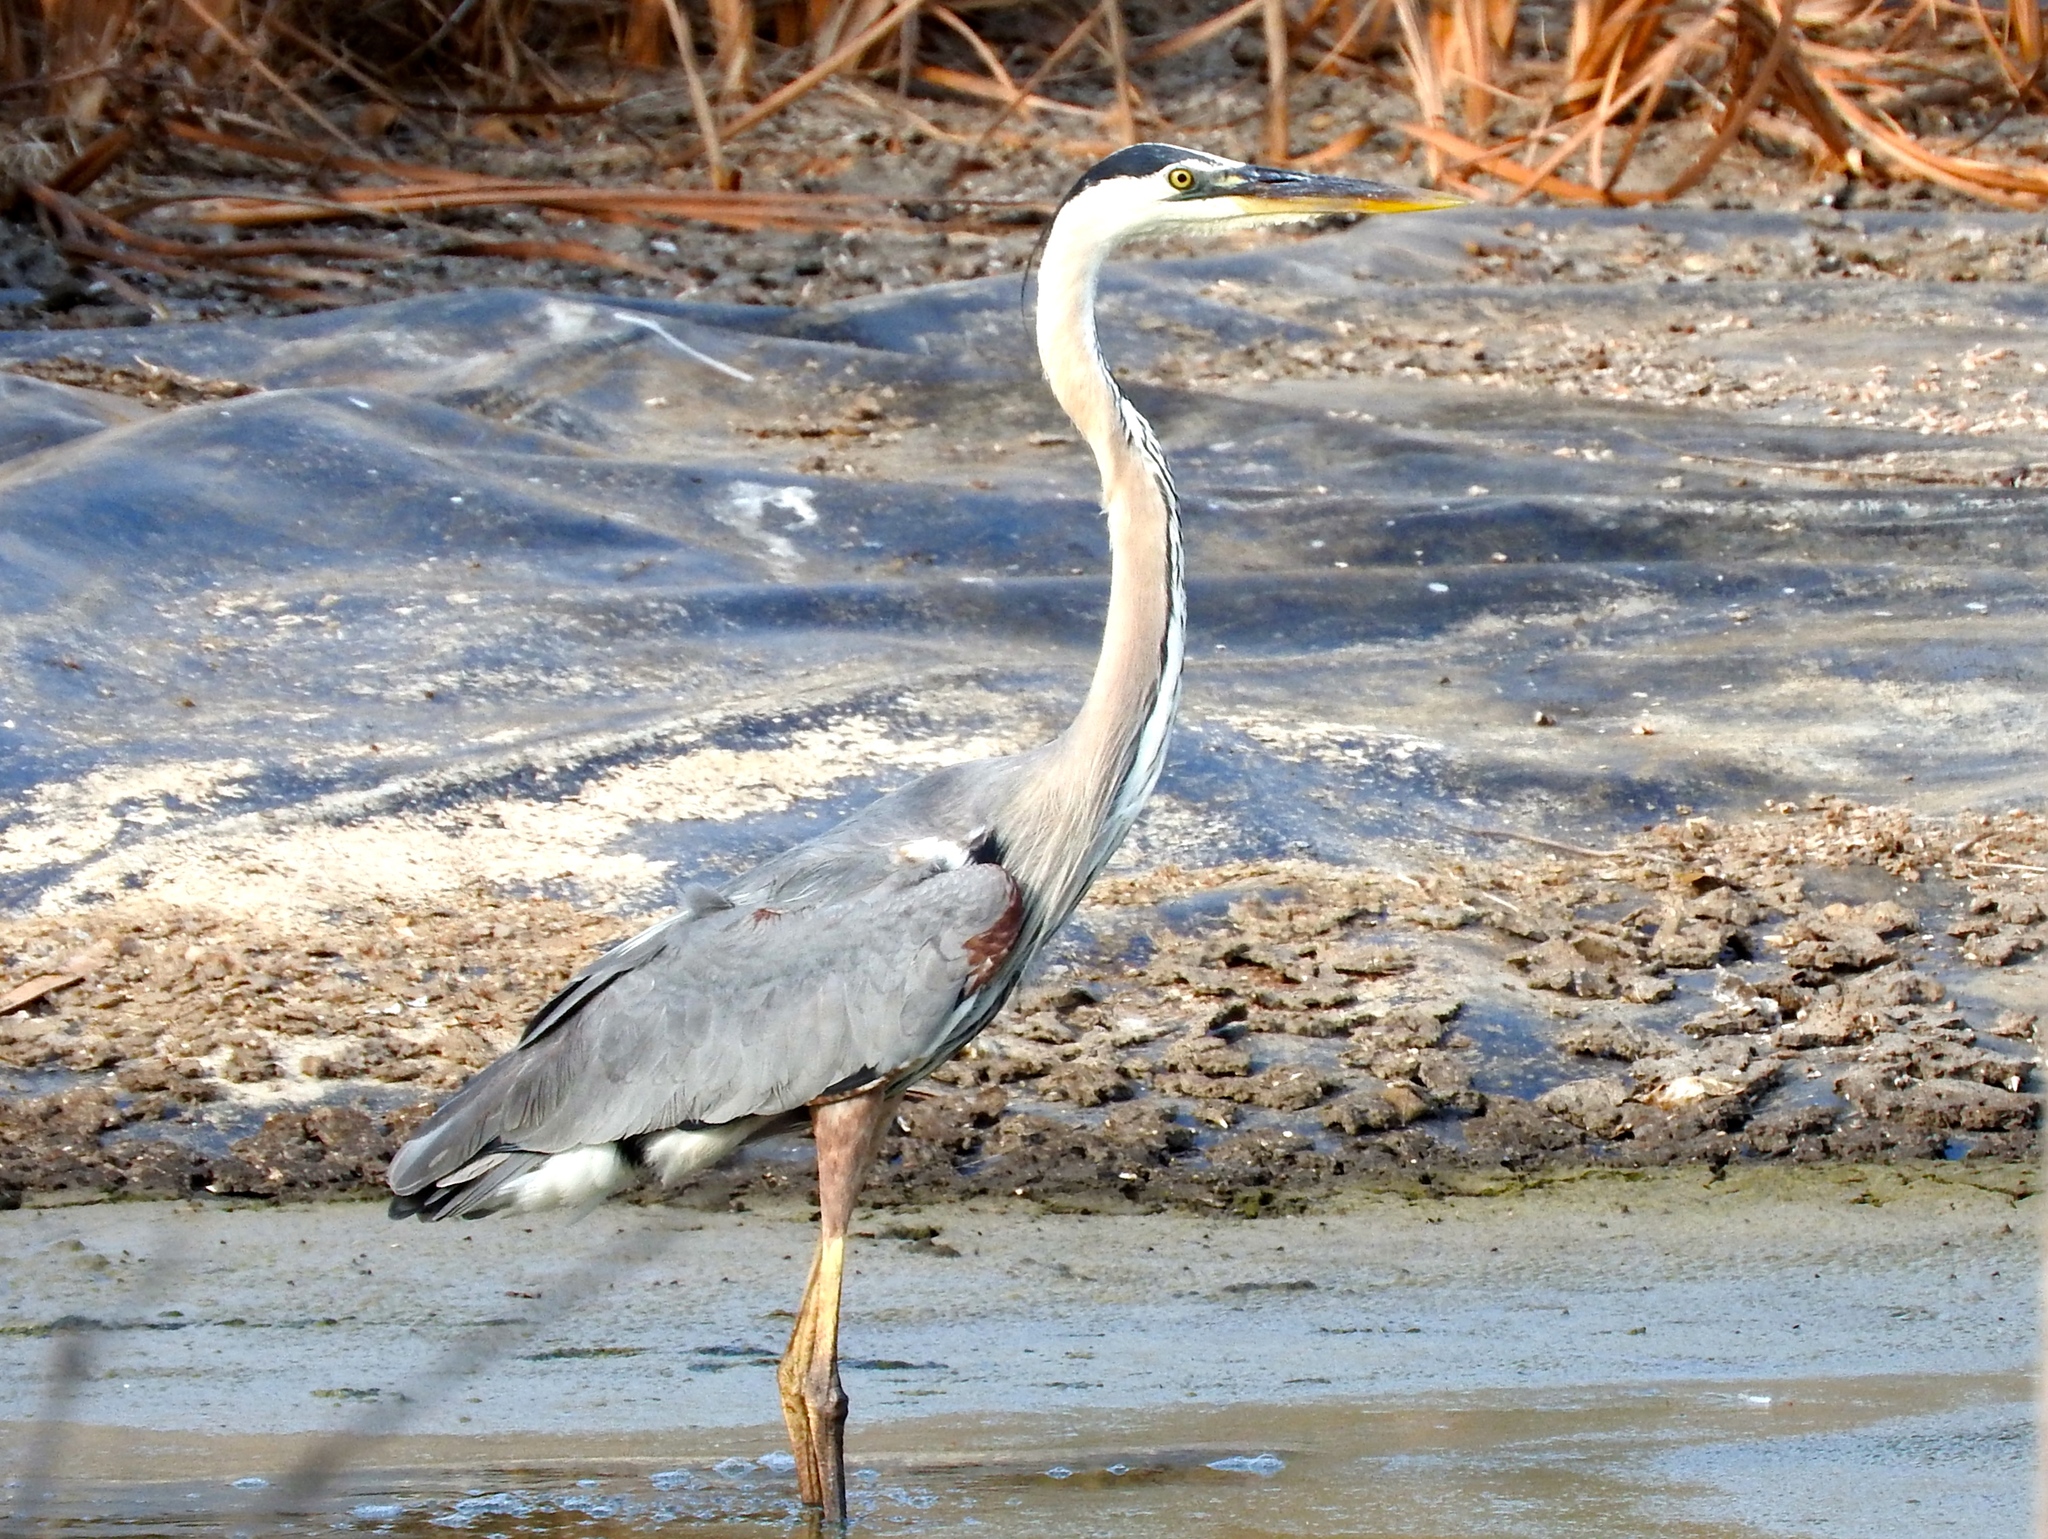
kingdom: Animalia
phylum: Chordata
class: Aves
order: Pelecaniformes
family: Ardeidae
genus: Ardea
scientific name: Ardea herodias
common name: Great blue heron
